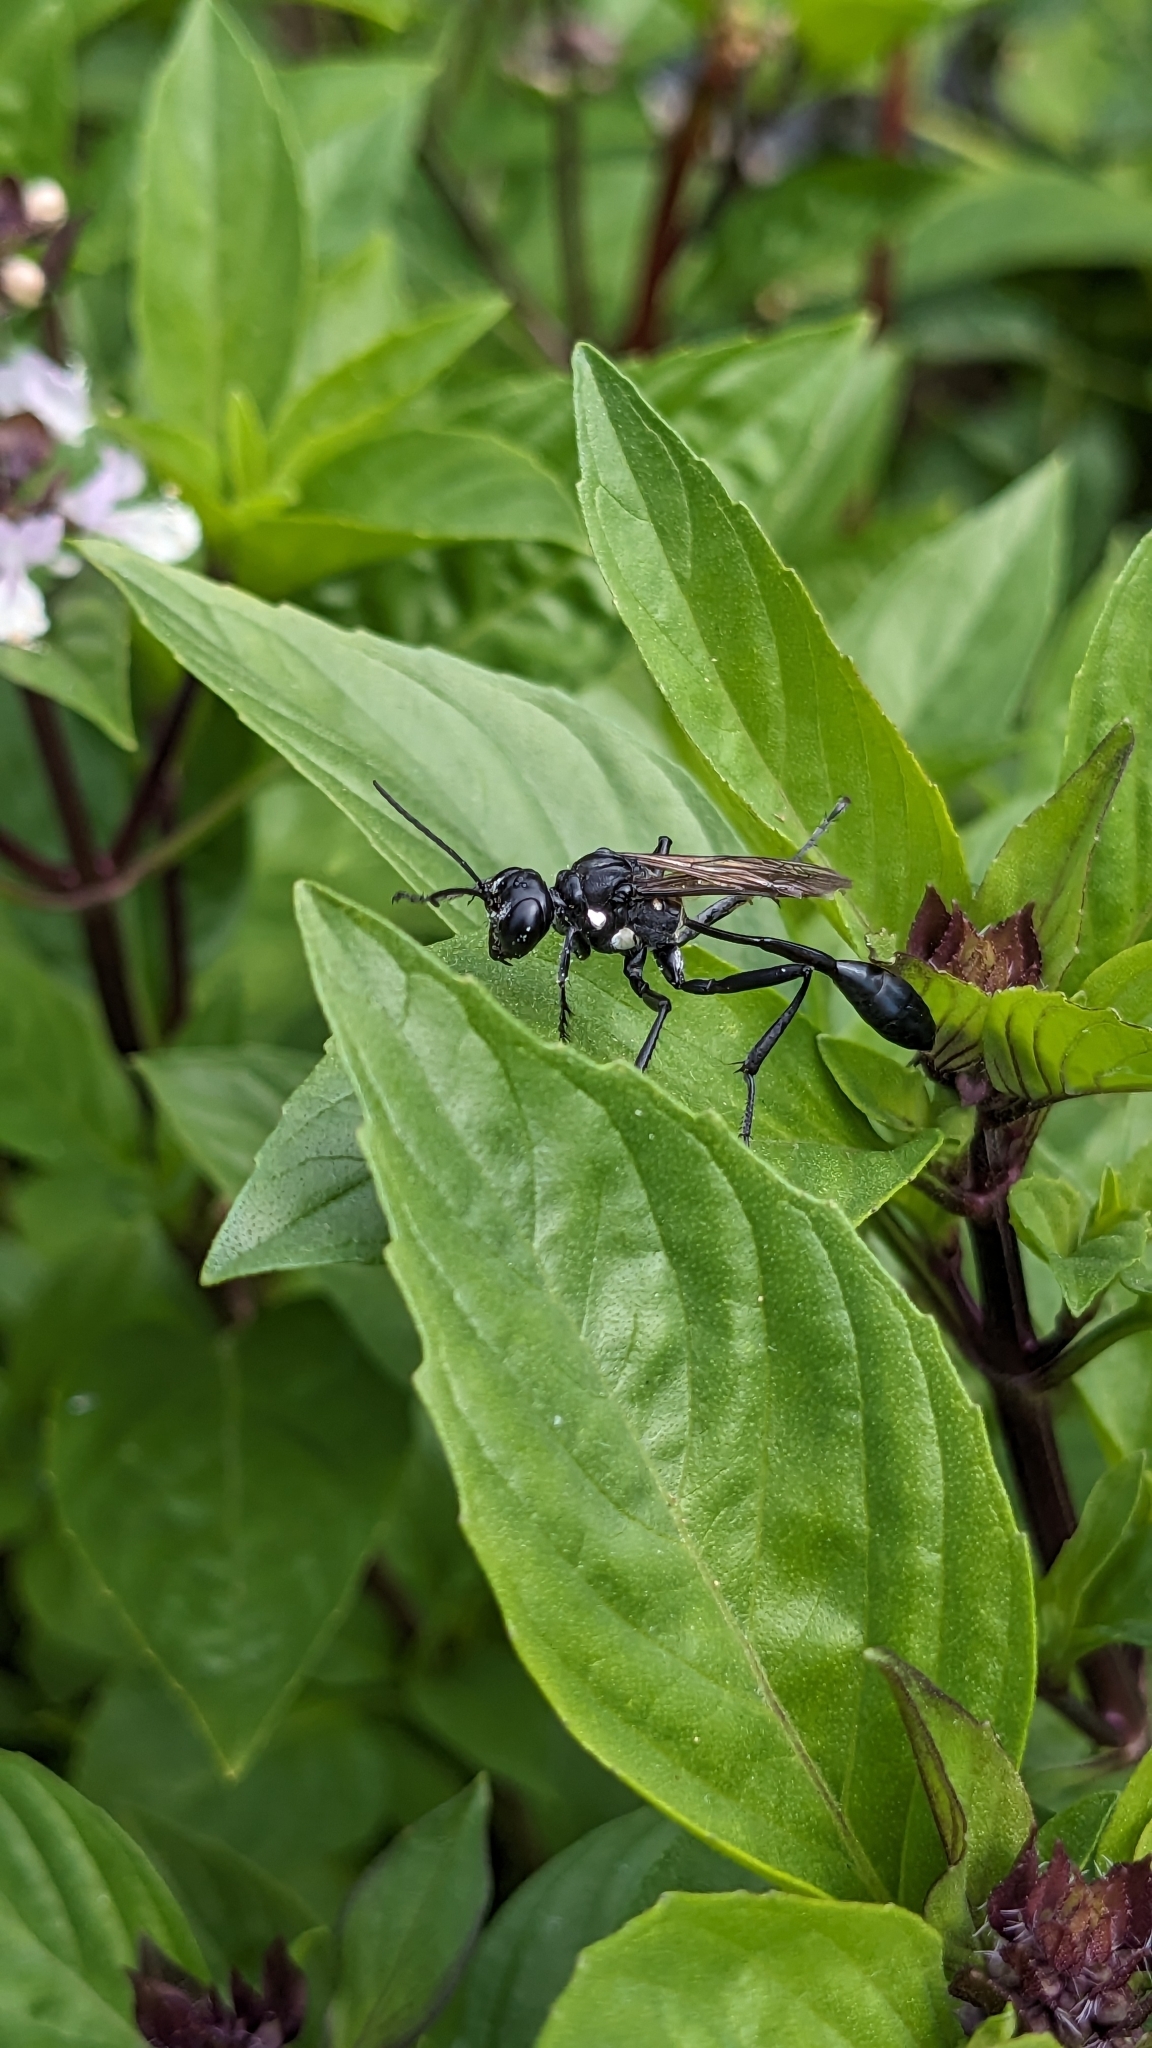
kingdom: Animalia
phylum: Arthropoda
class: Insecta
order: Hymenoptera
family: Sphecidae
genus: Eremnophila
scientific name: Eremnophila aureonotata
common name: Gold-marked thread-waisted wasp
